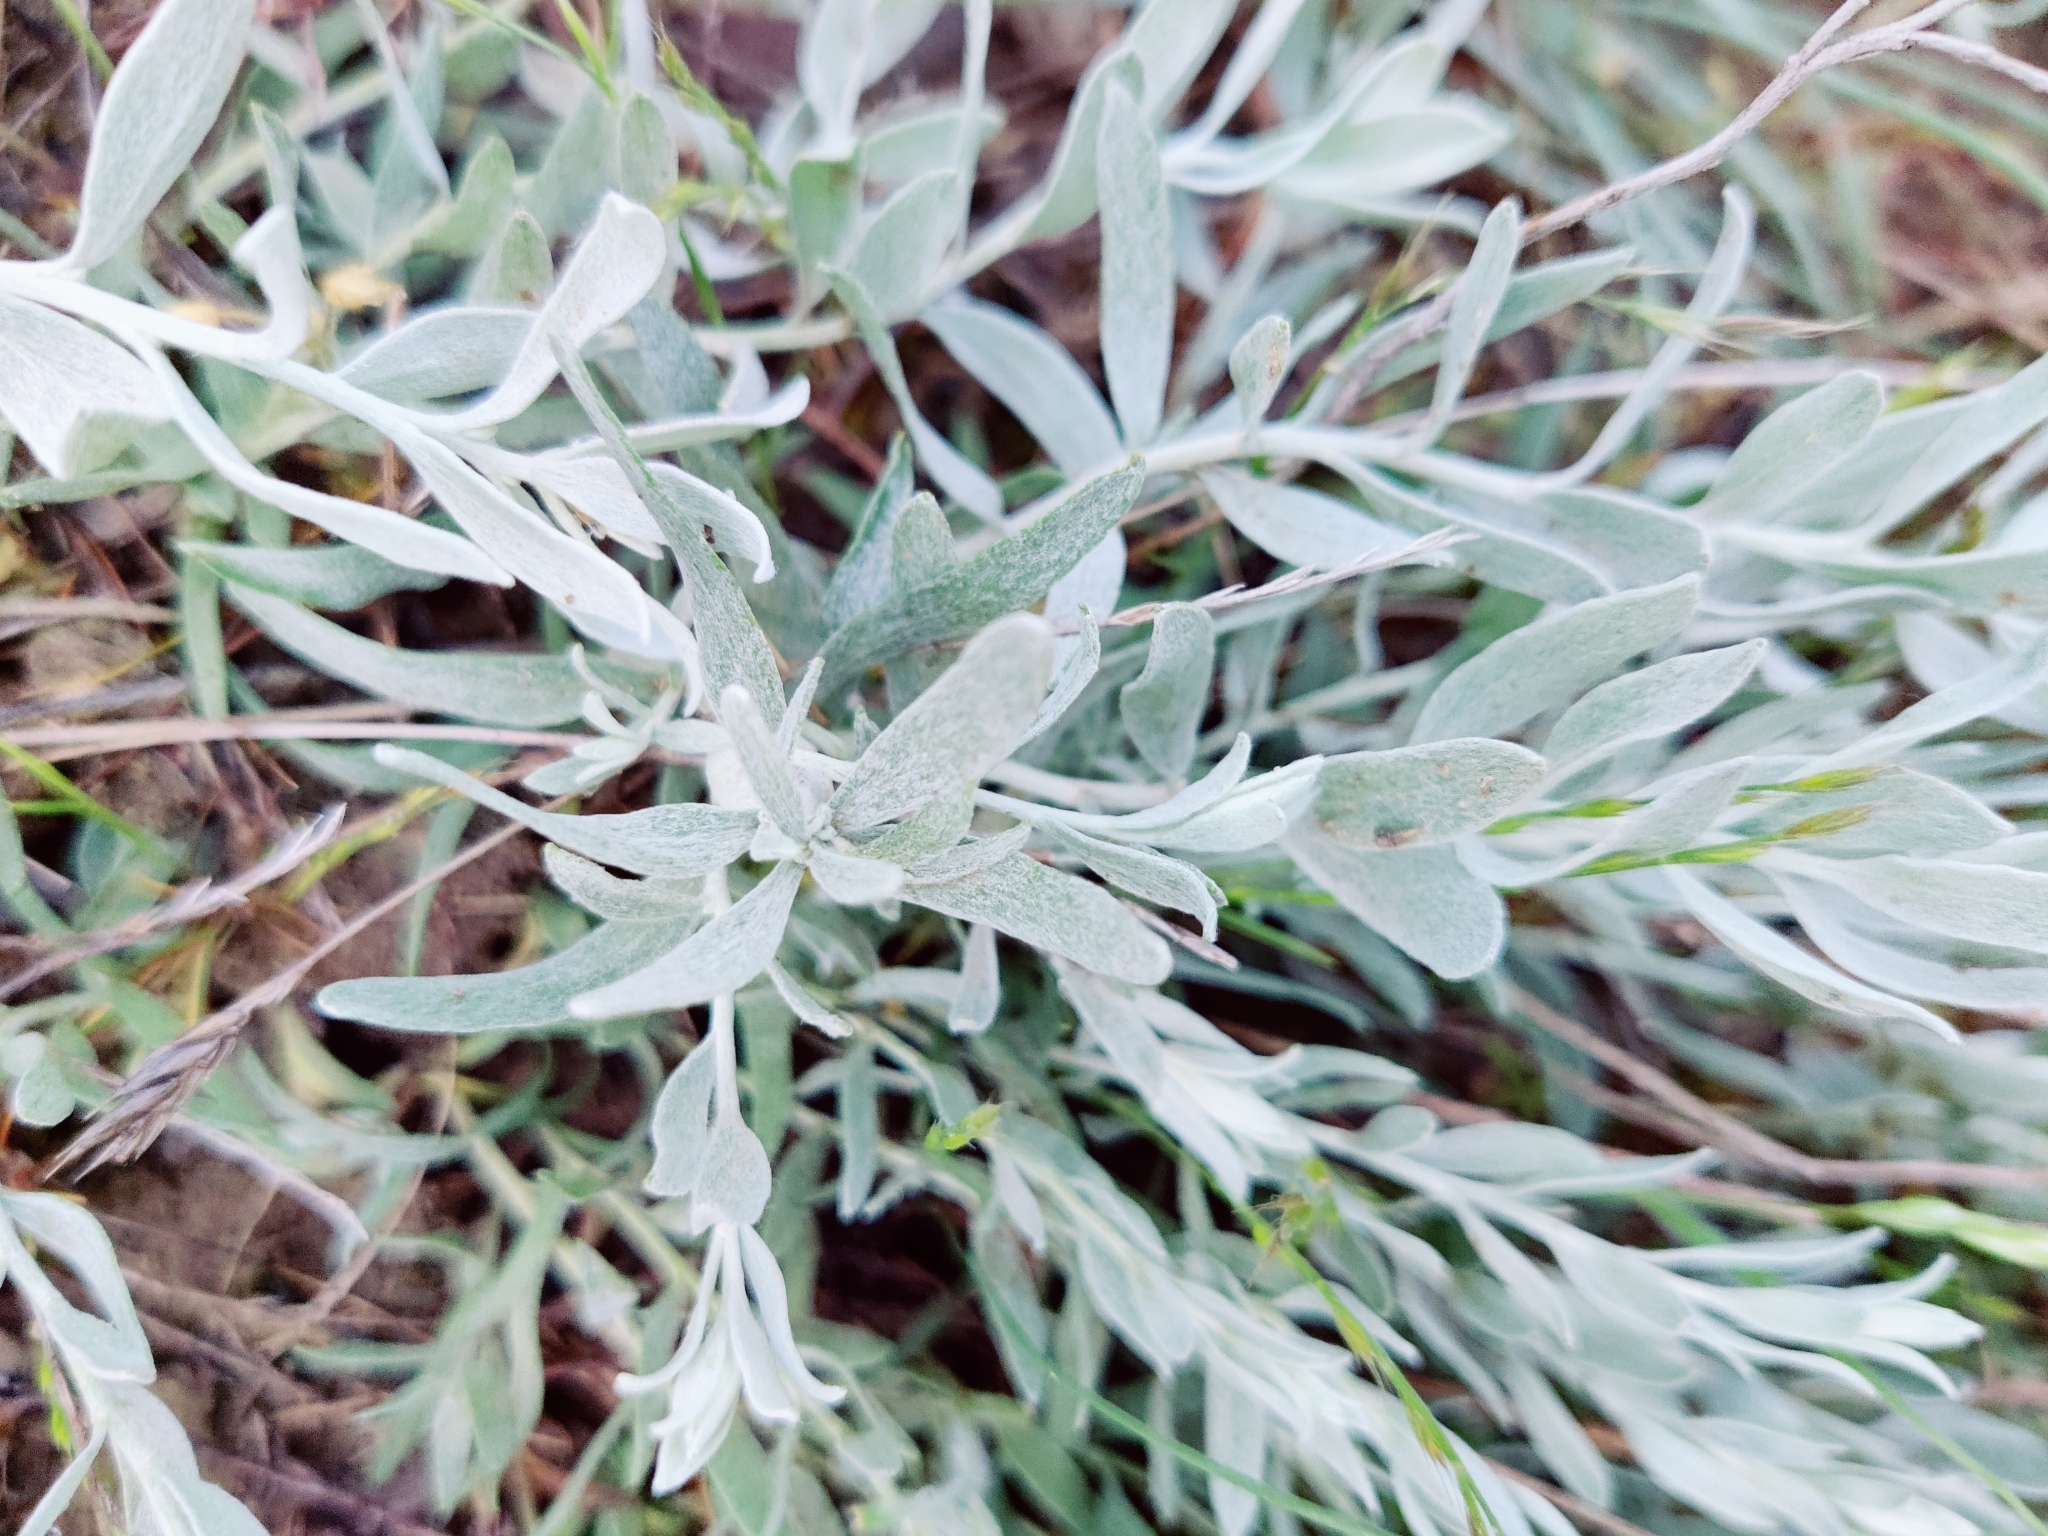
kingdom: Plantae
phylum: Tracheophyta
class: Magnoliopsida
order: Asterales
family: Asteraceae
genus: Galatella
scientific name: Galatella villosa
